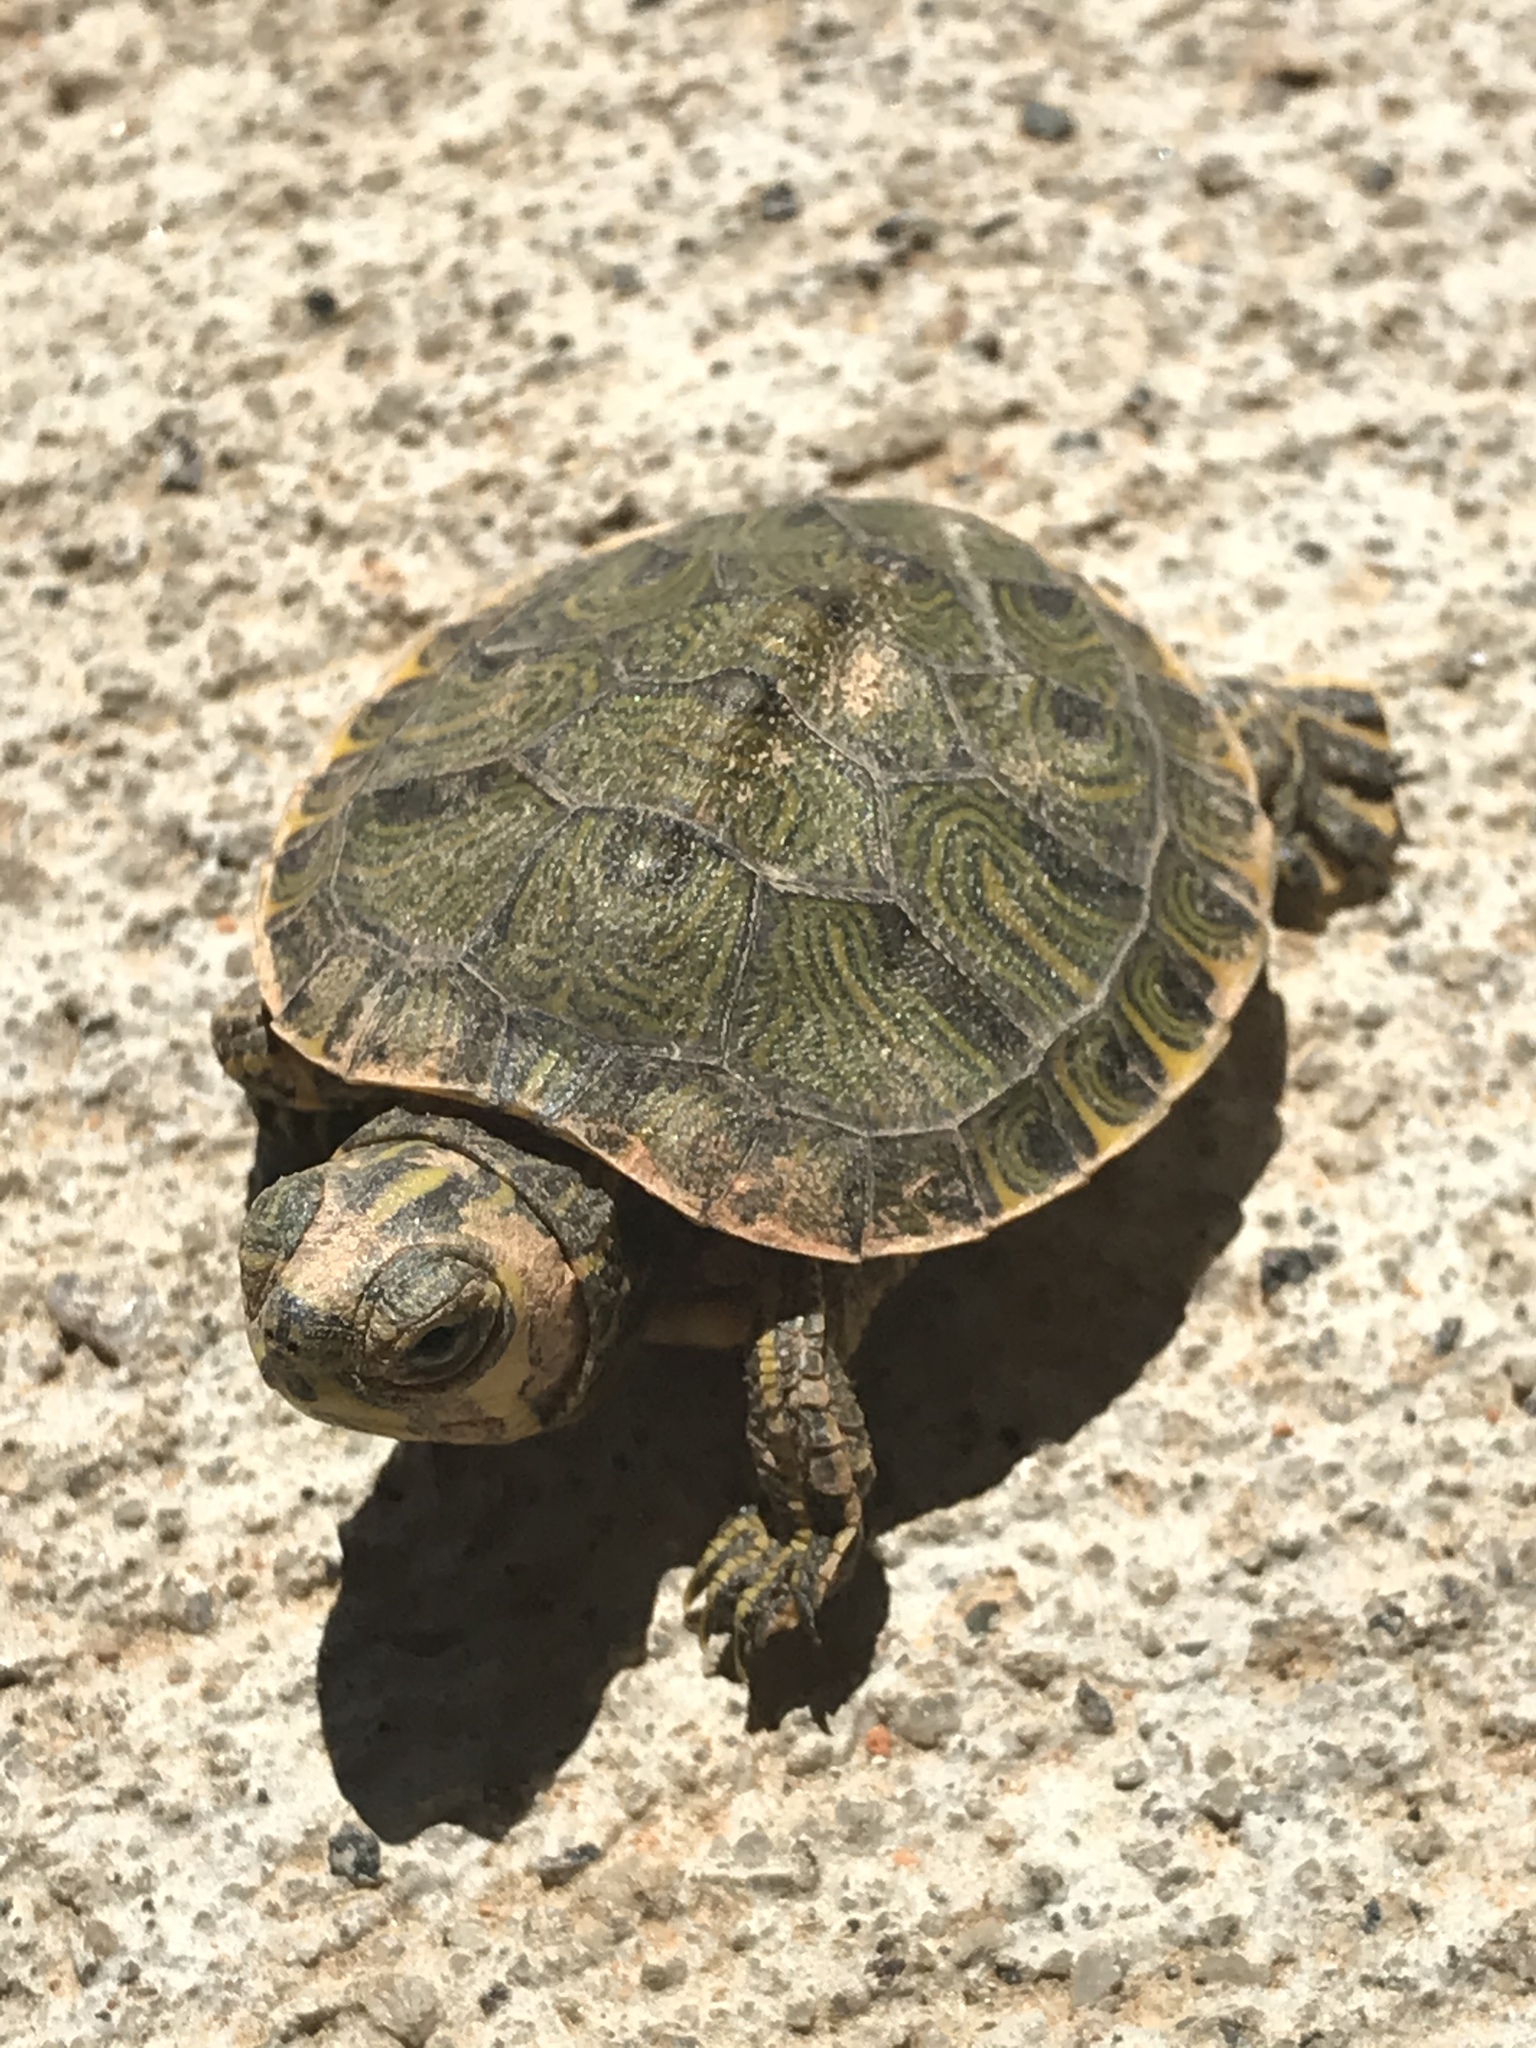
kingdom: Animalia
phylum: Chordata
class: Testudines
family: Emydidae
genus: Trachemys
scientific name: Trachemys scripta
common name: Slider
